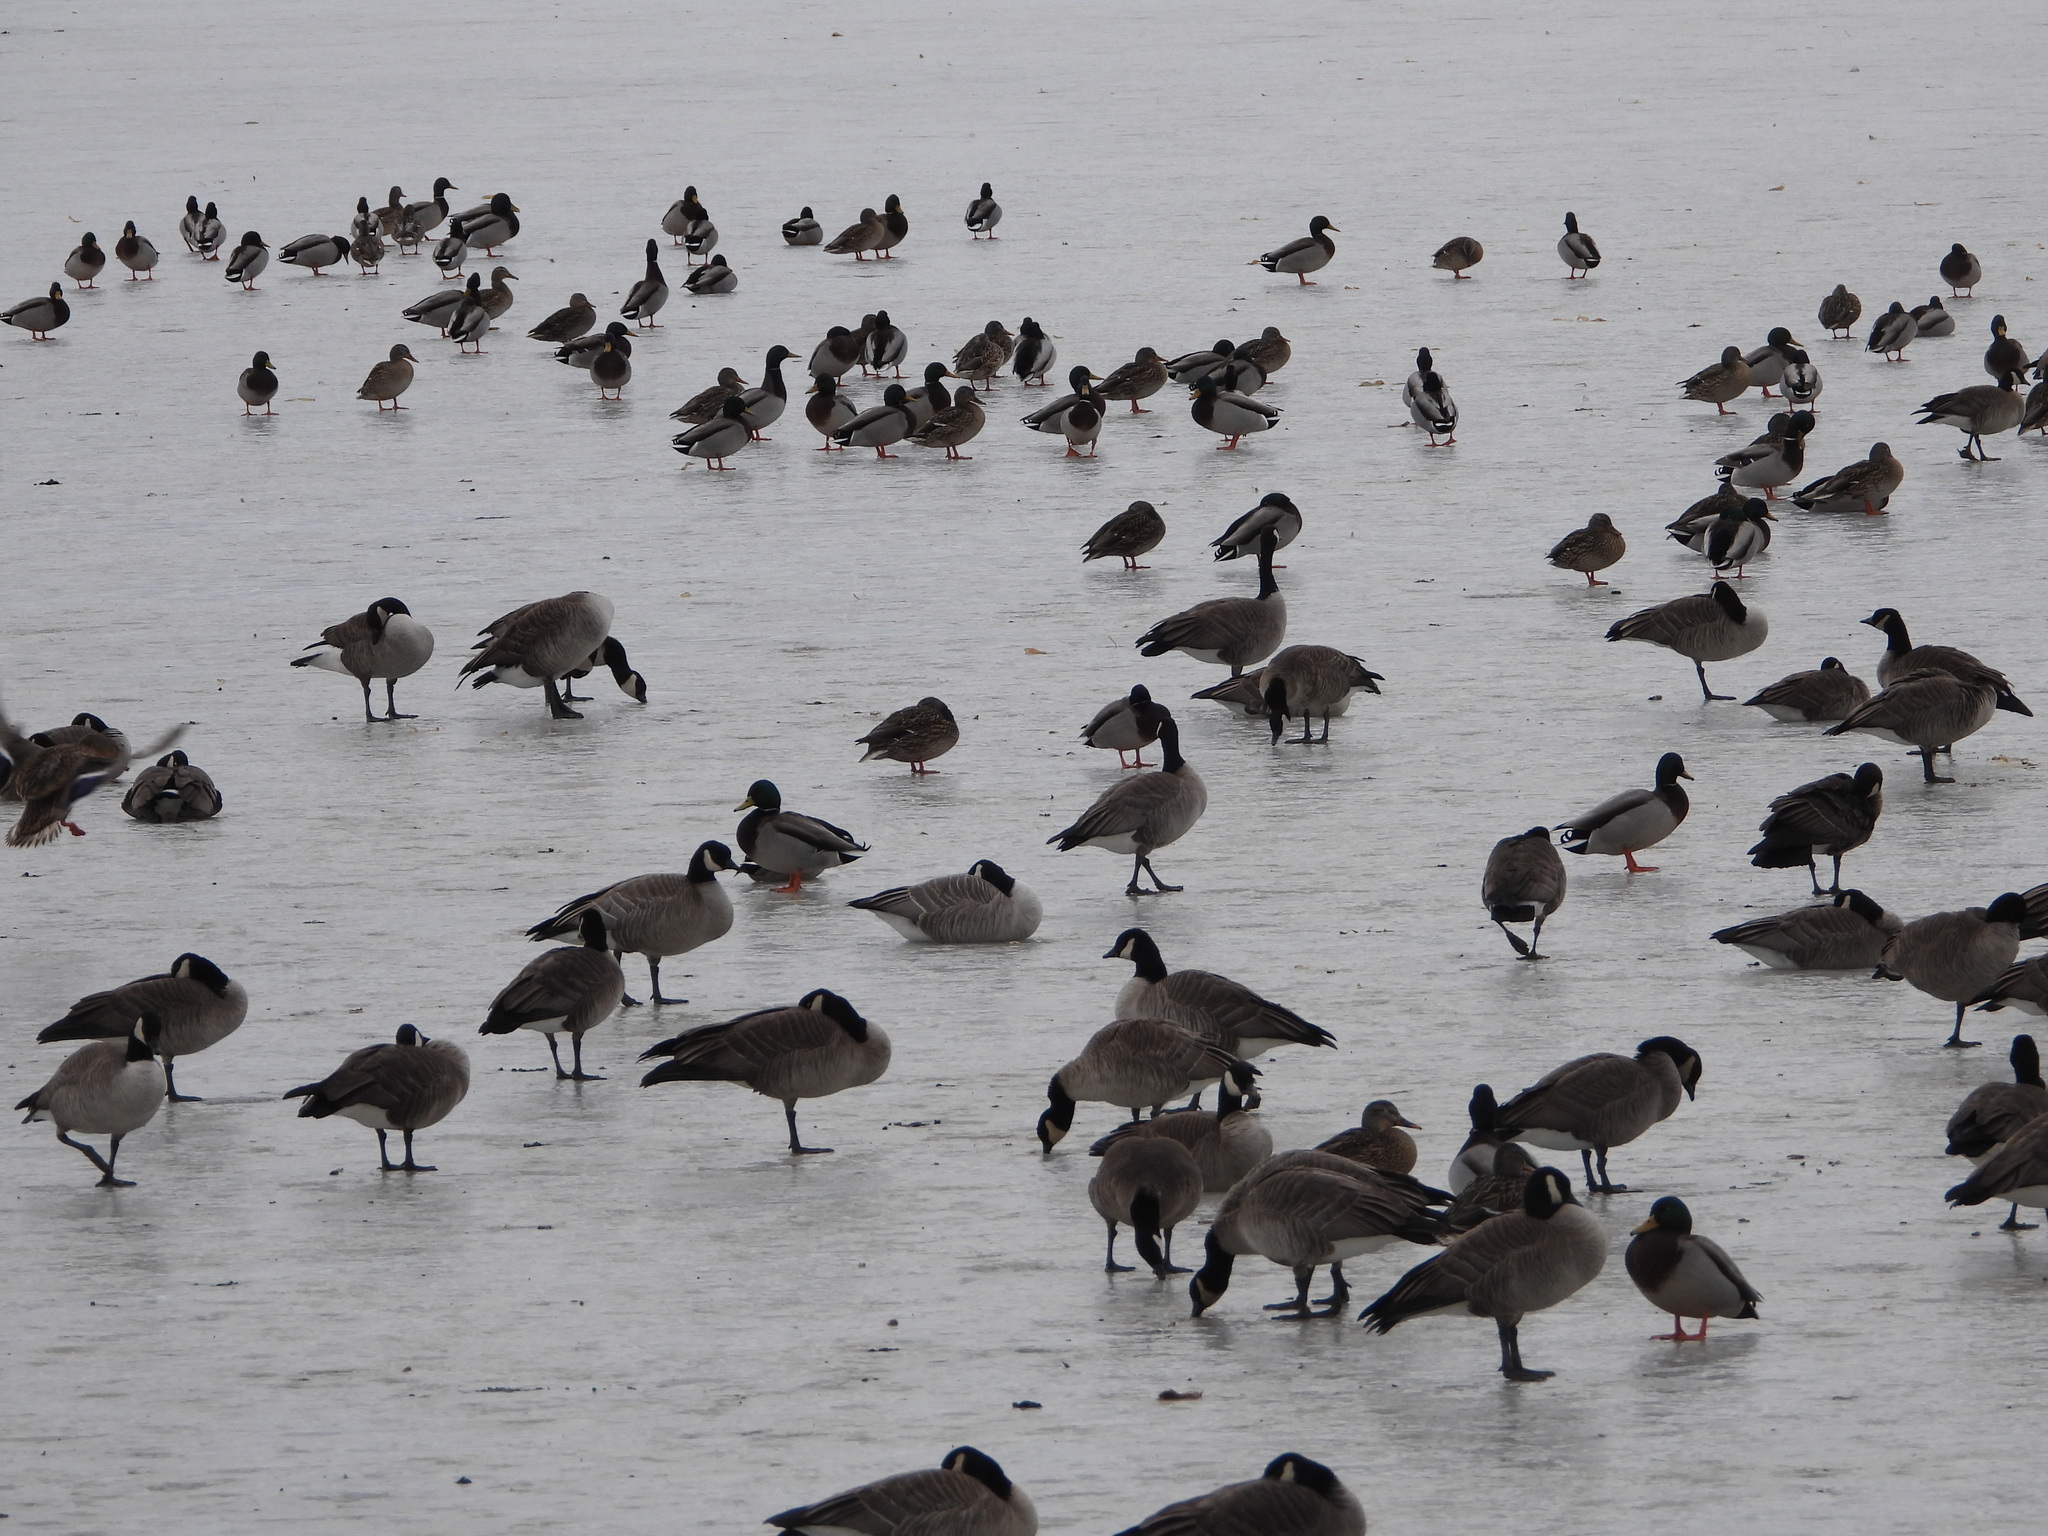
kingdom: Animalia
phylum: Chordata
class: Aves
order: Anseriformes
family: Anatidae
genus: Branta
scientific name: Branta hutchinsii
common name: Cackling goose
